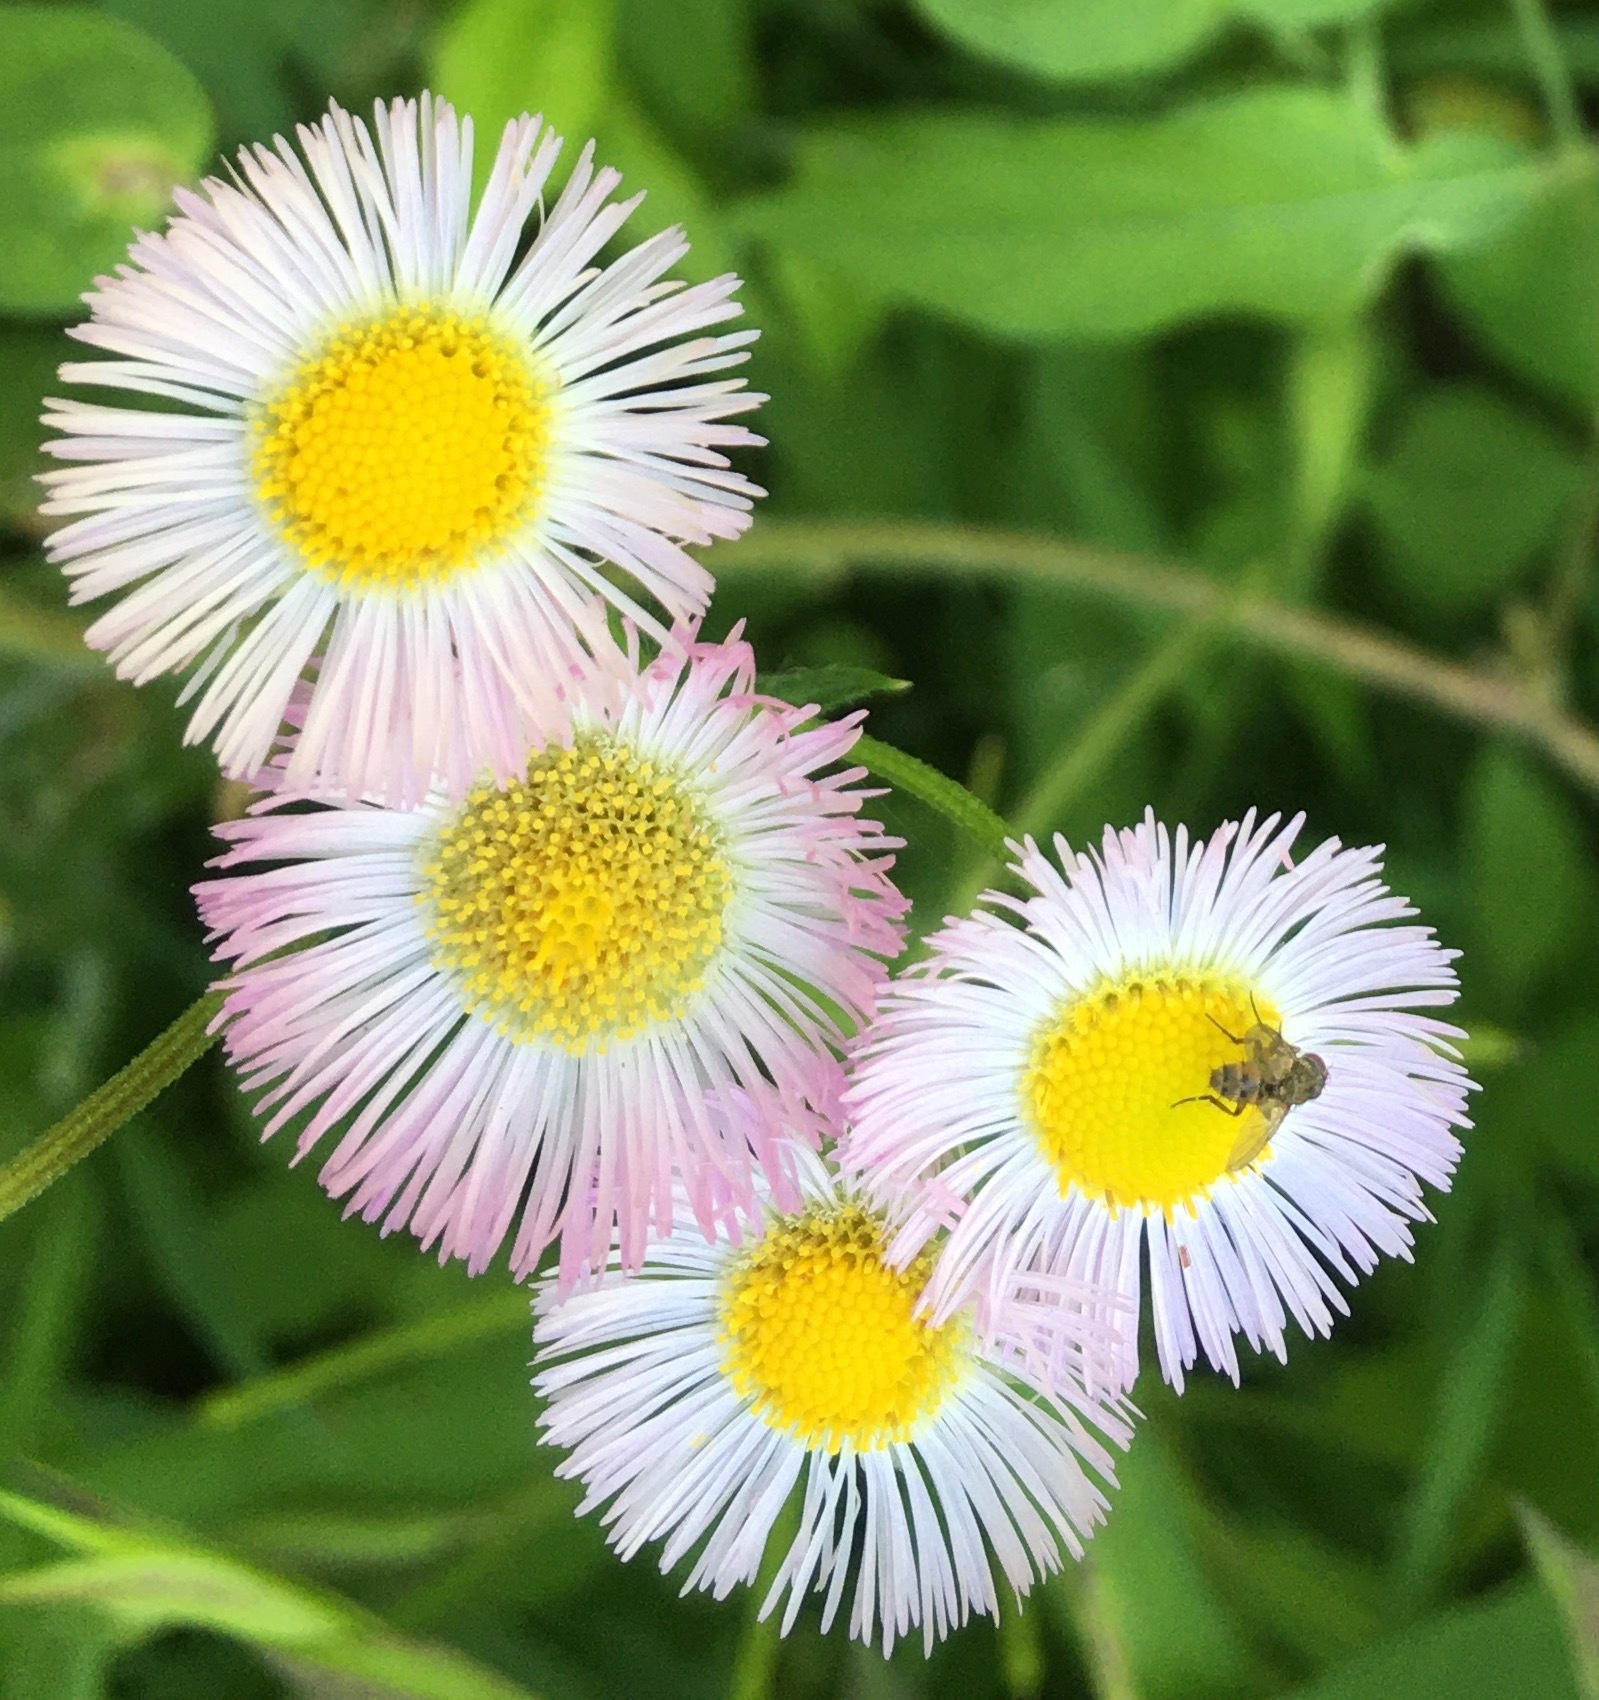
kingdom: Plantae
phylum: Tracheophyta
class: Magnoliopsida
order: Asterales
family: Asteraceae
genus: Erigeron
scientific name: Erigeron philadelphicus
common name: Robin's-plantain
